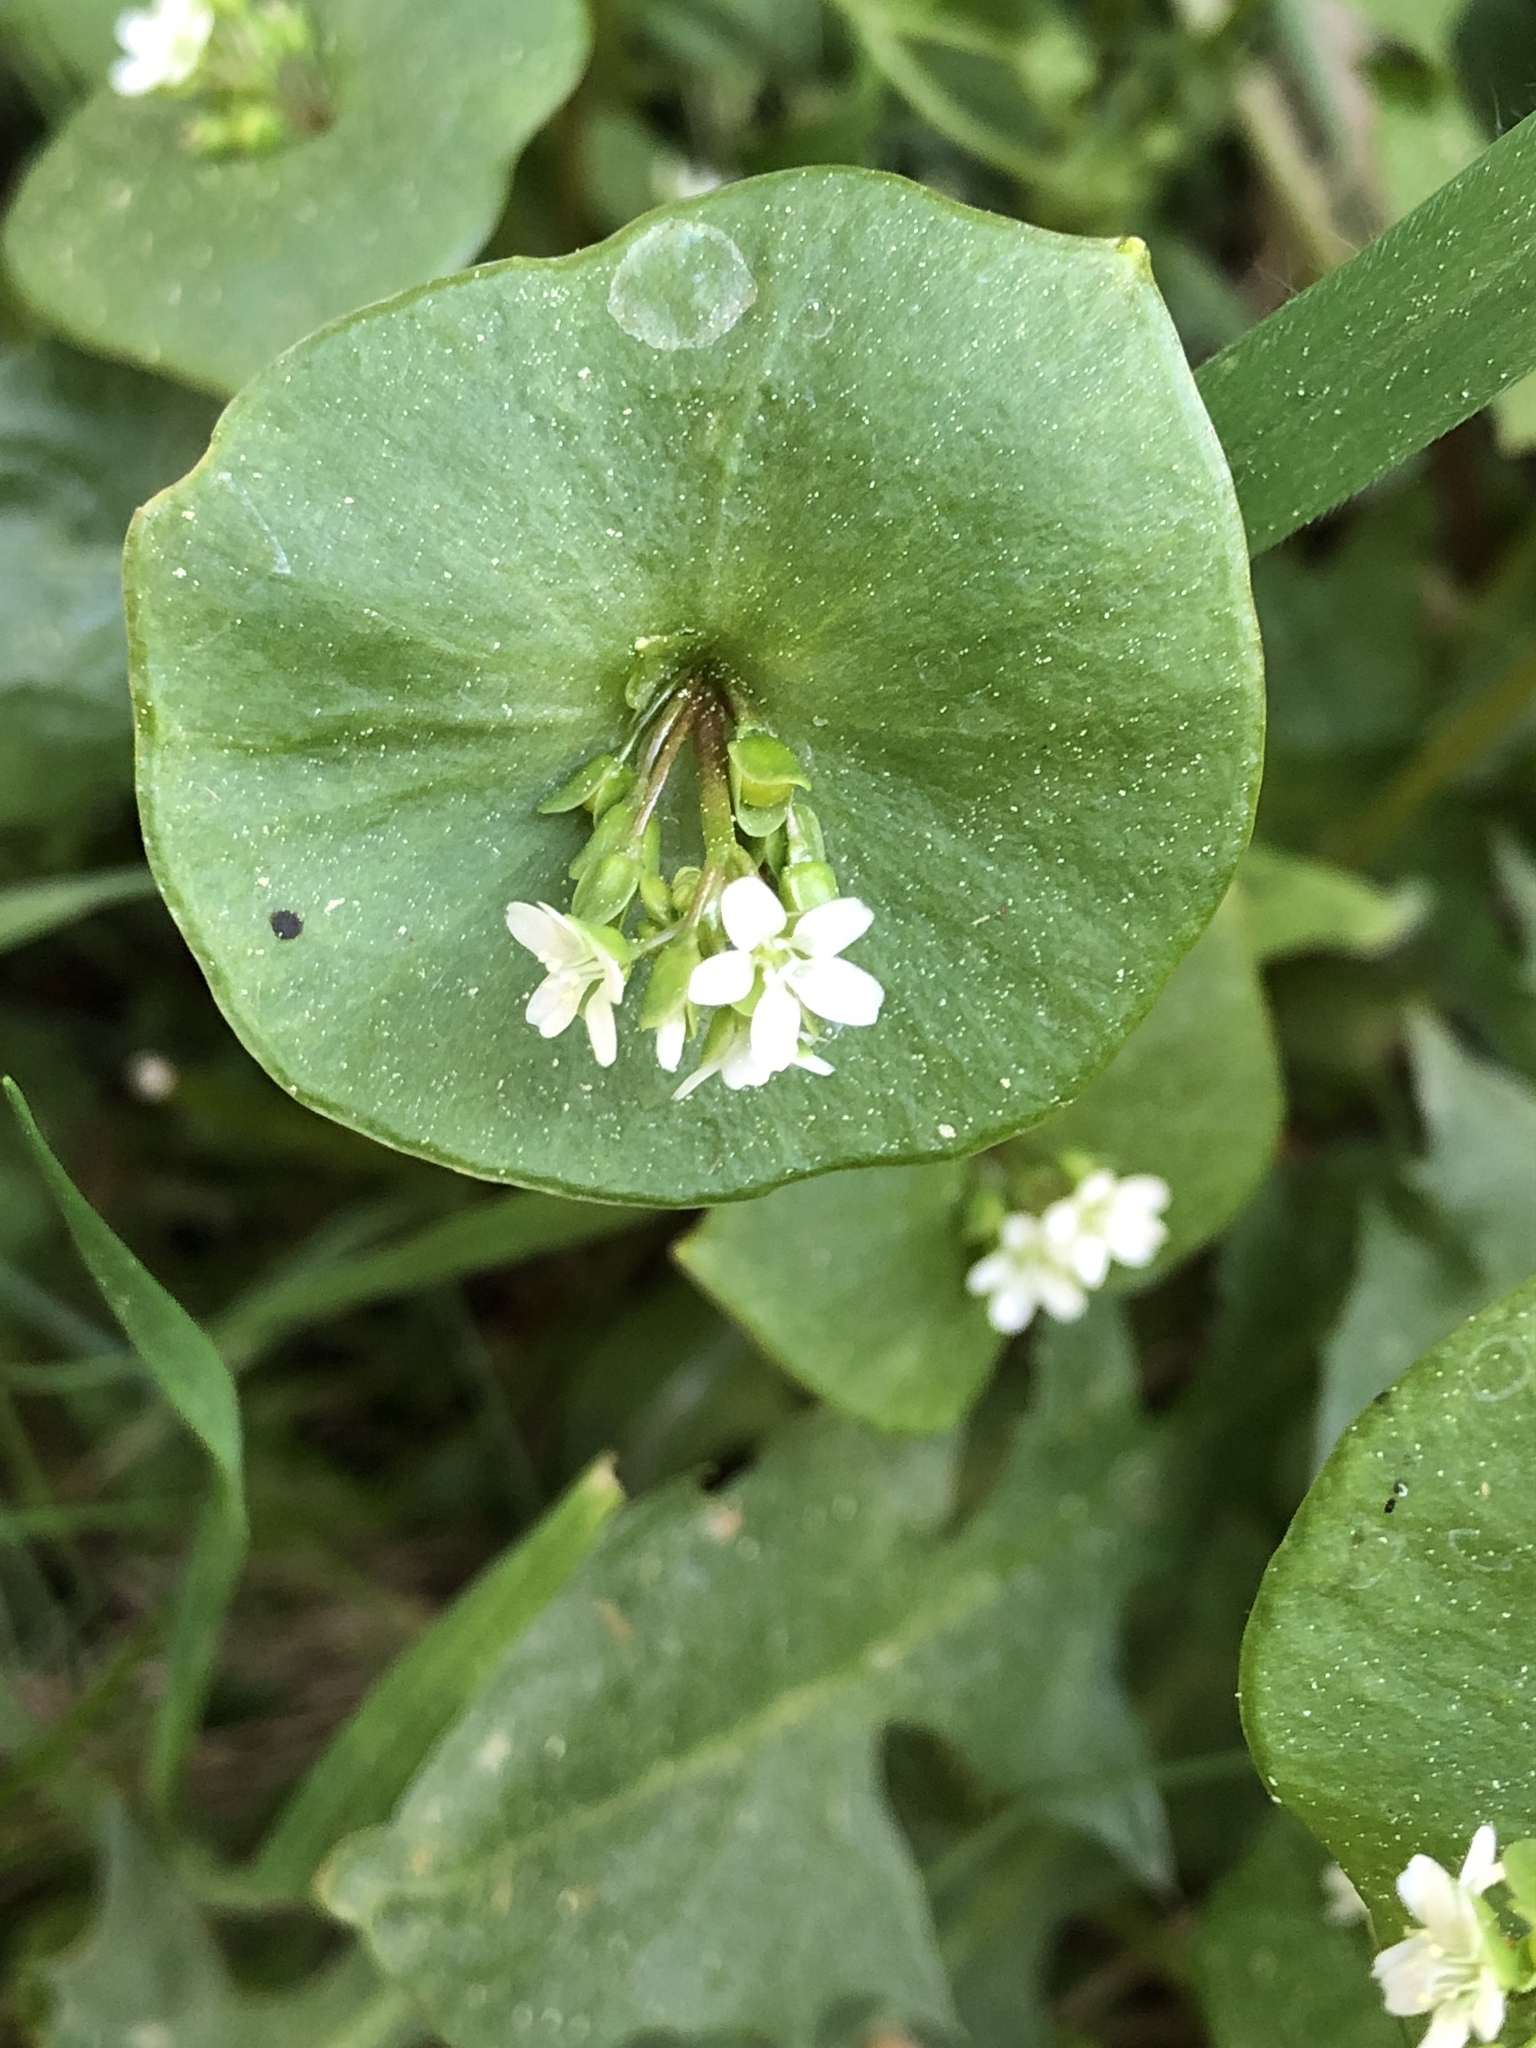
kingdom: Plantae
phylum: Tracheophyta
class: Magnoliopsida
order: Caryophyllales
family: Montiaceae
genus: Claytonia
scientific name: Claytonia perfoliata
